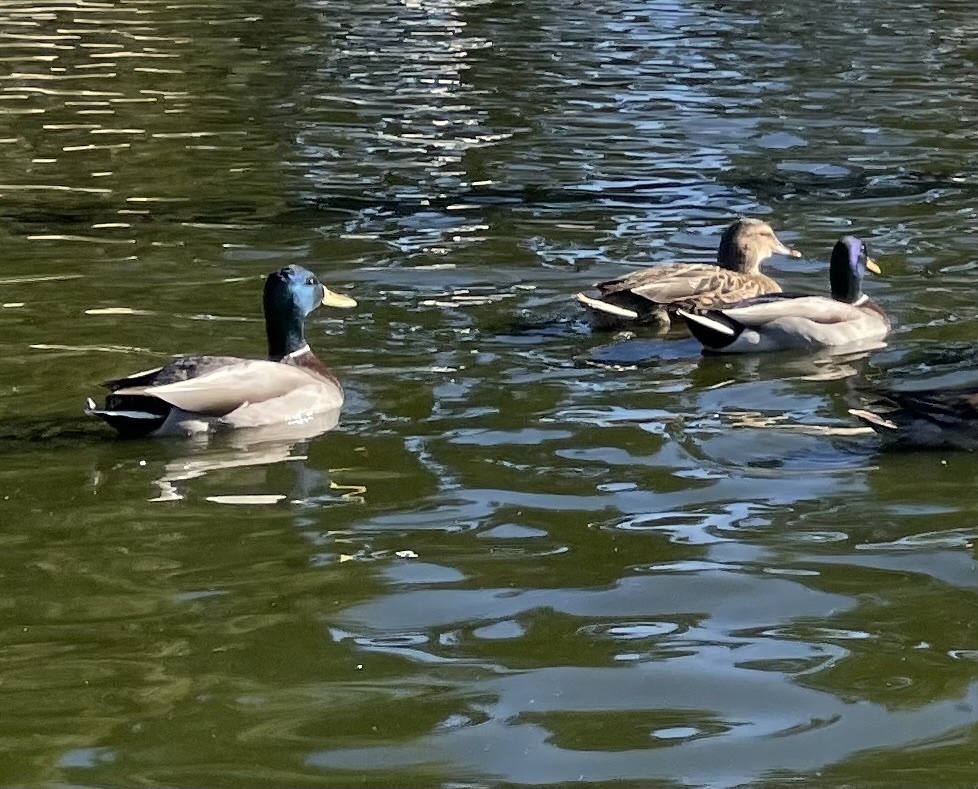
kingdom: Animalia
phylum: Chordata
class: Aves
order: Anseriformes
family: Anatidae
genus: Anas
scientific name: Anas platyrhynchos
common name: Mallard
